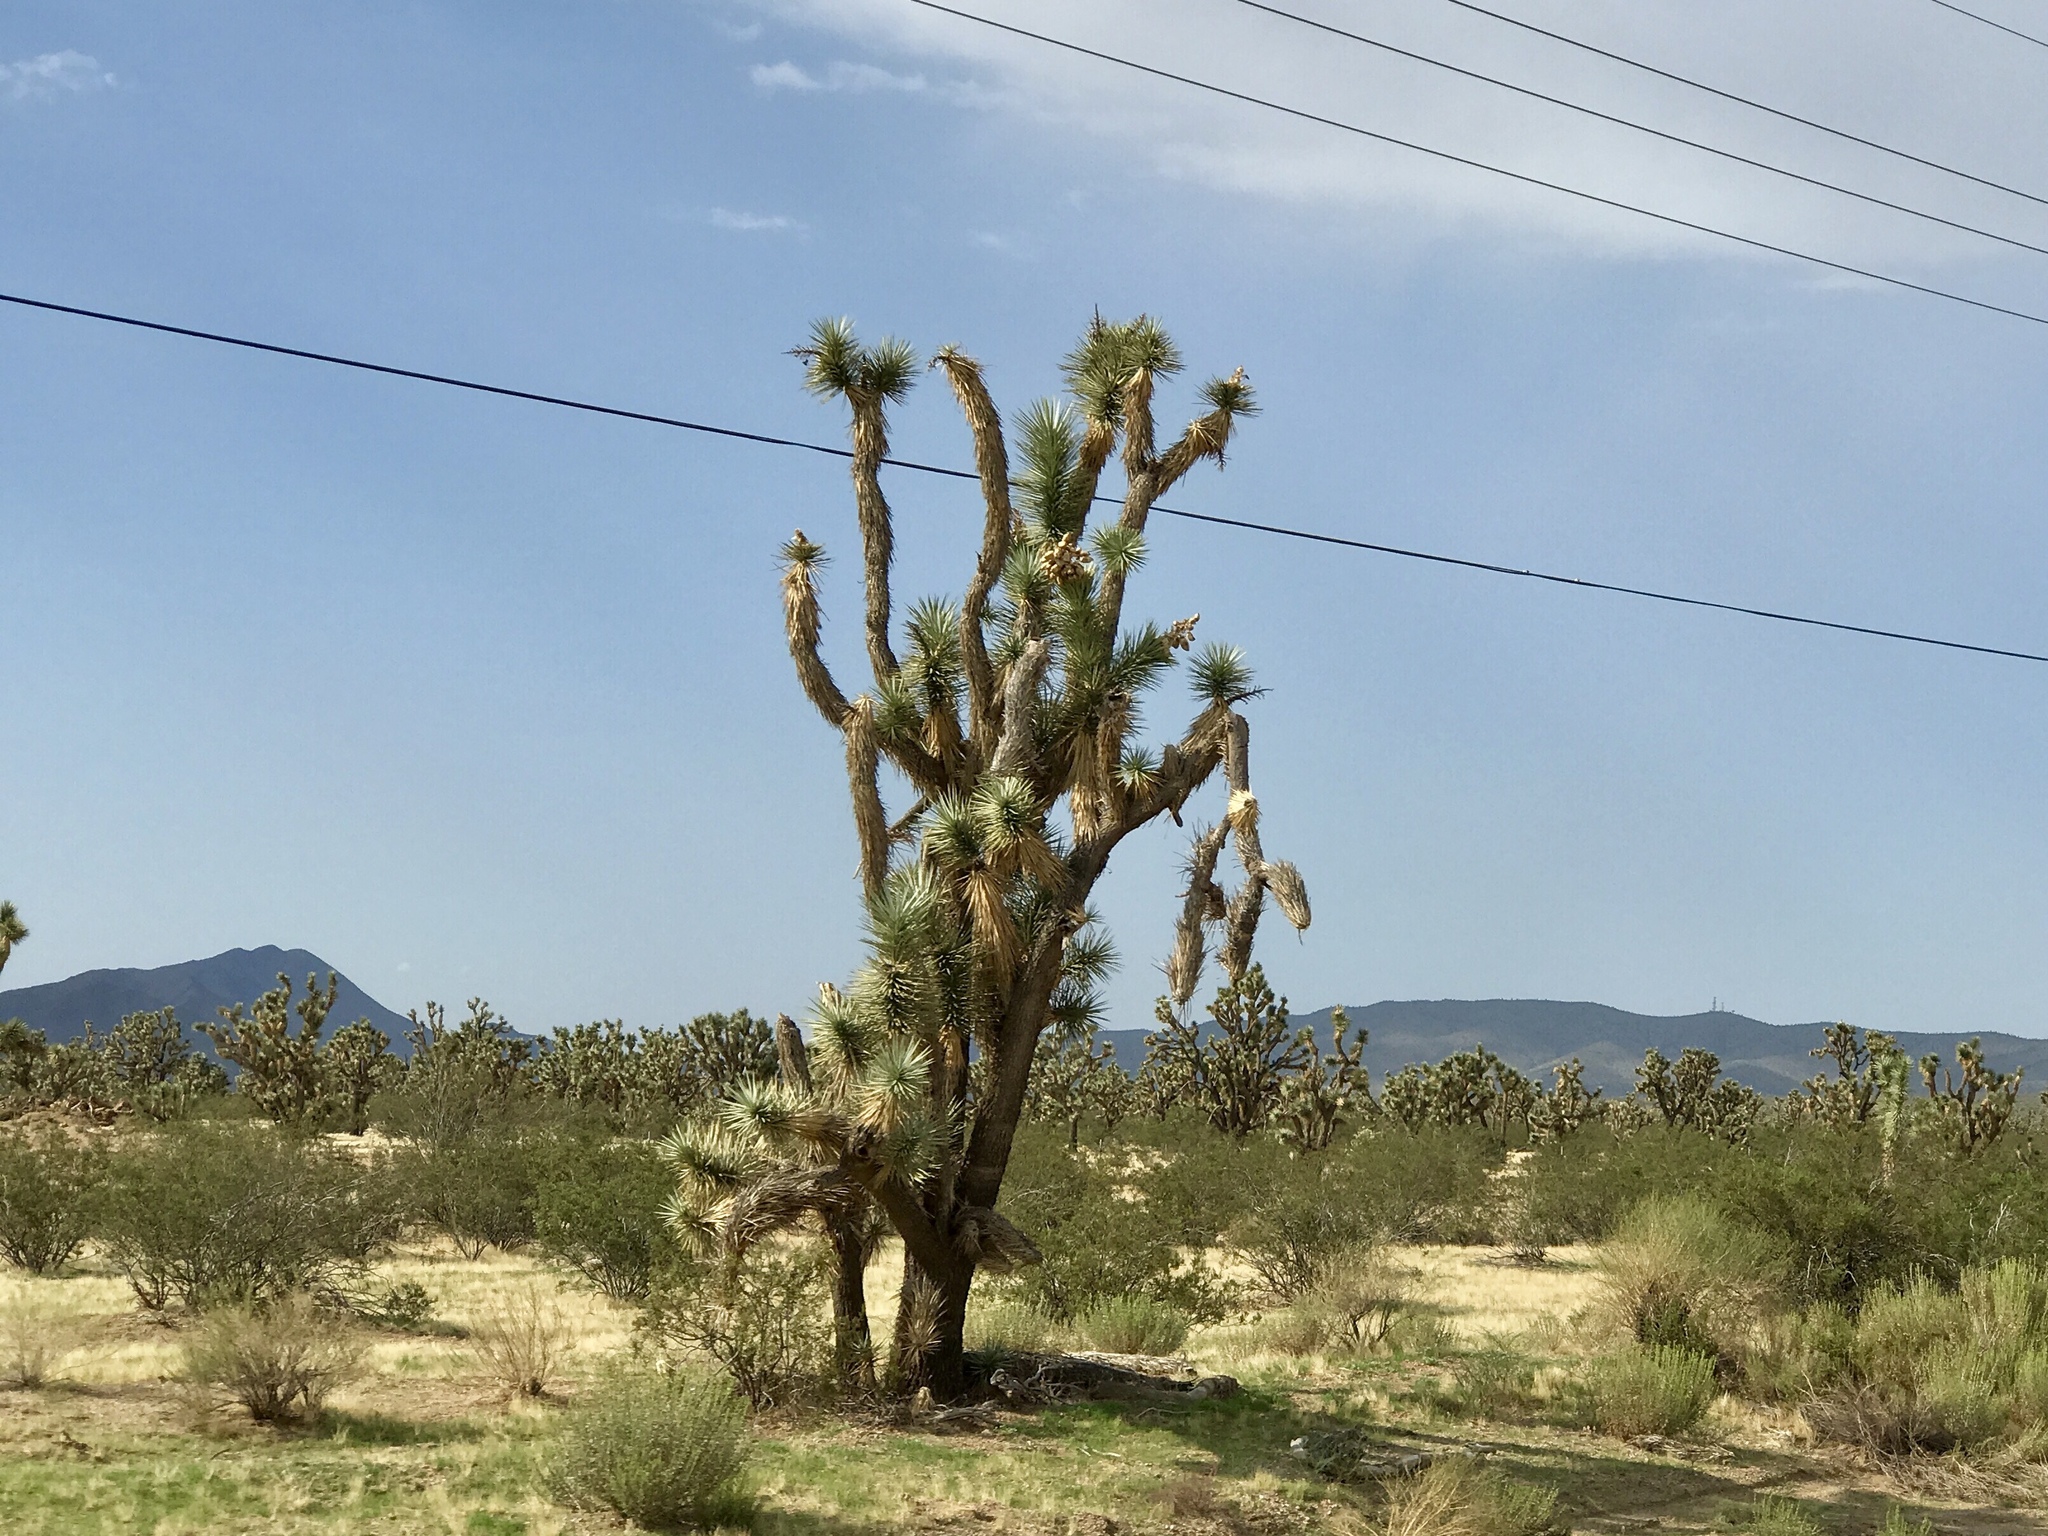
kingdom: Plantae
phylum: Tracheophyta
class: Liliopsida
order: Asparagales
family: Asparagaceae
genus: Yucca
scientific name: Yucca brevifolia
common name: Joshua tree
